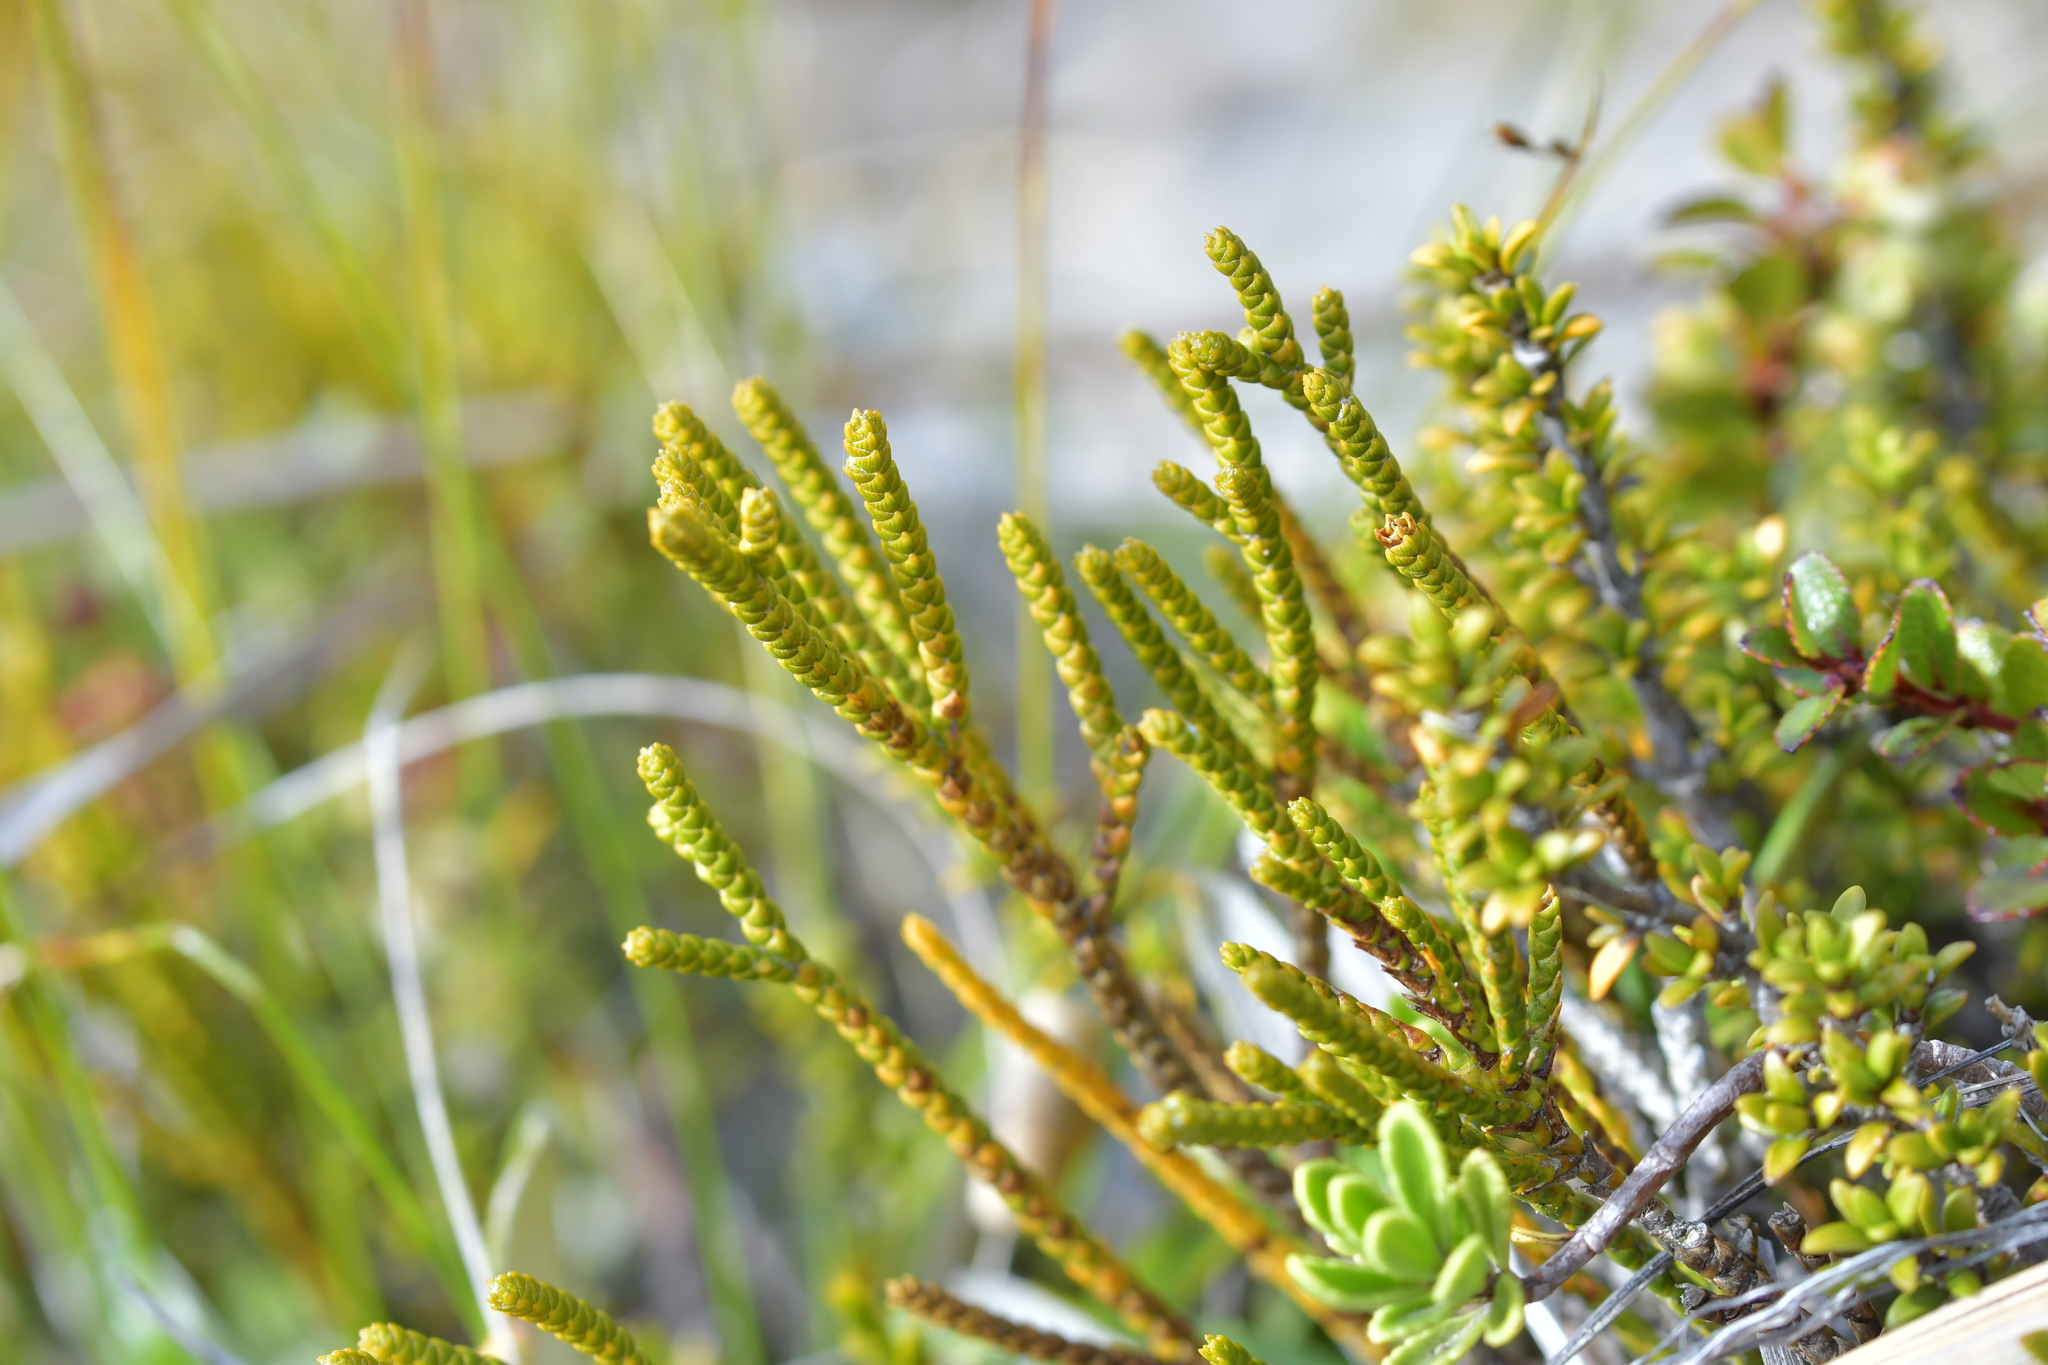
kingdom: Plantae
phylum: Tracheophyta
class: Magnoliopsida
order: Lamiales
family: Plantaginaceae
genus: Veronica
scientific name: Veronica lycopodioides
